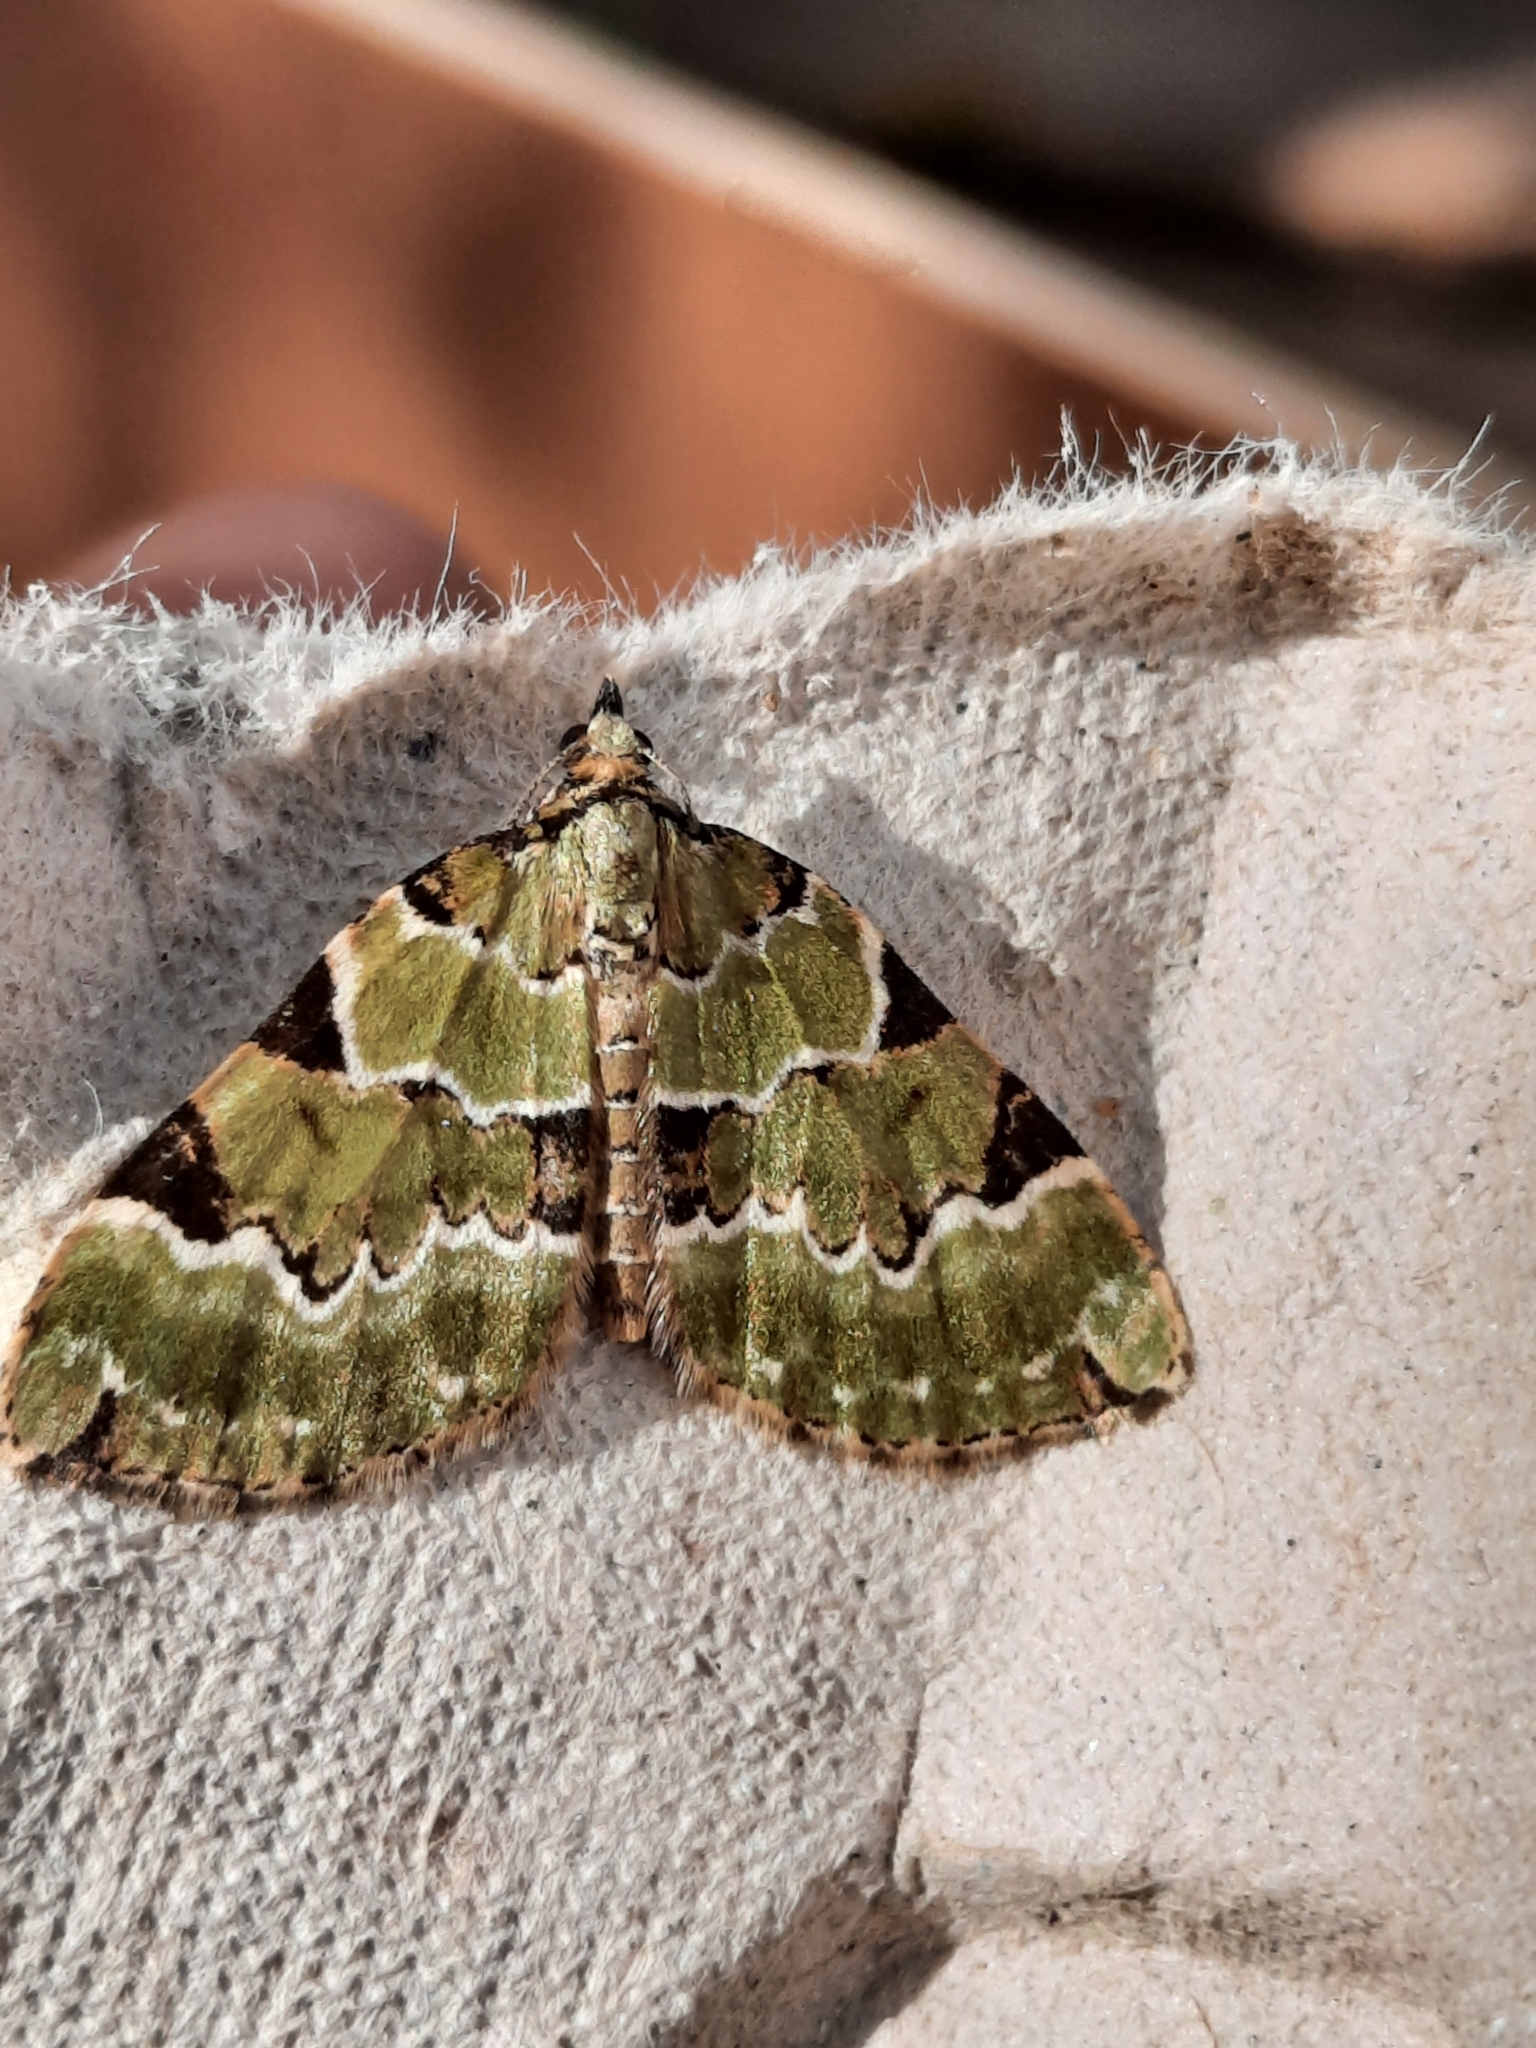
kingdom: Animalia
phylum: Arthropoda
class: Insecta
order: Lepidoptera
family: Geometridae
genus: Colostygia
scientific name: Colostygia pectinataria
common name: Green carpet
